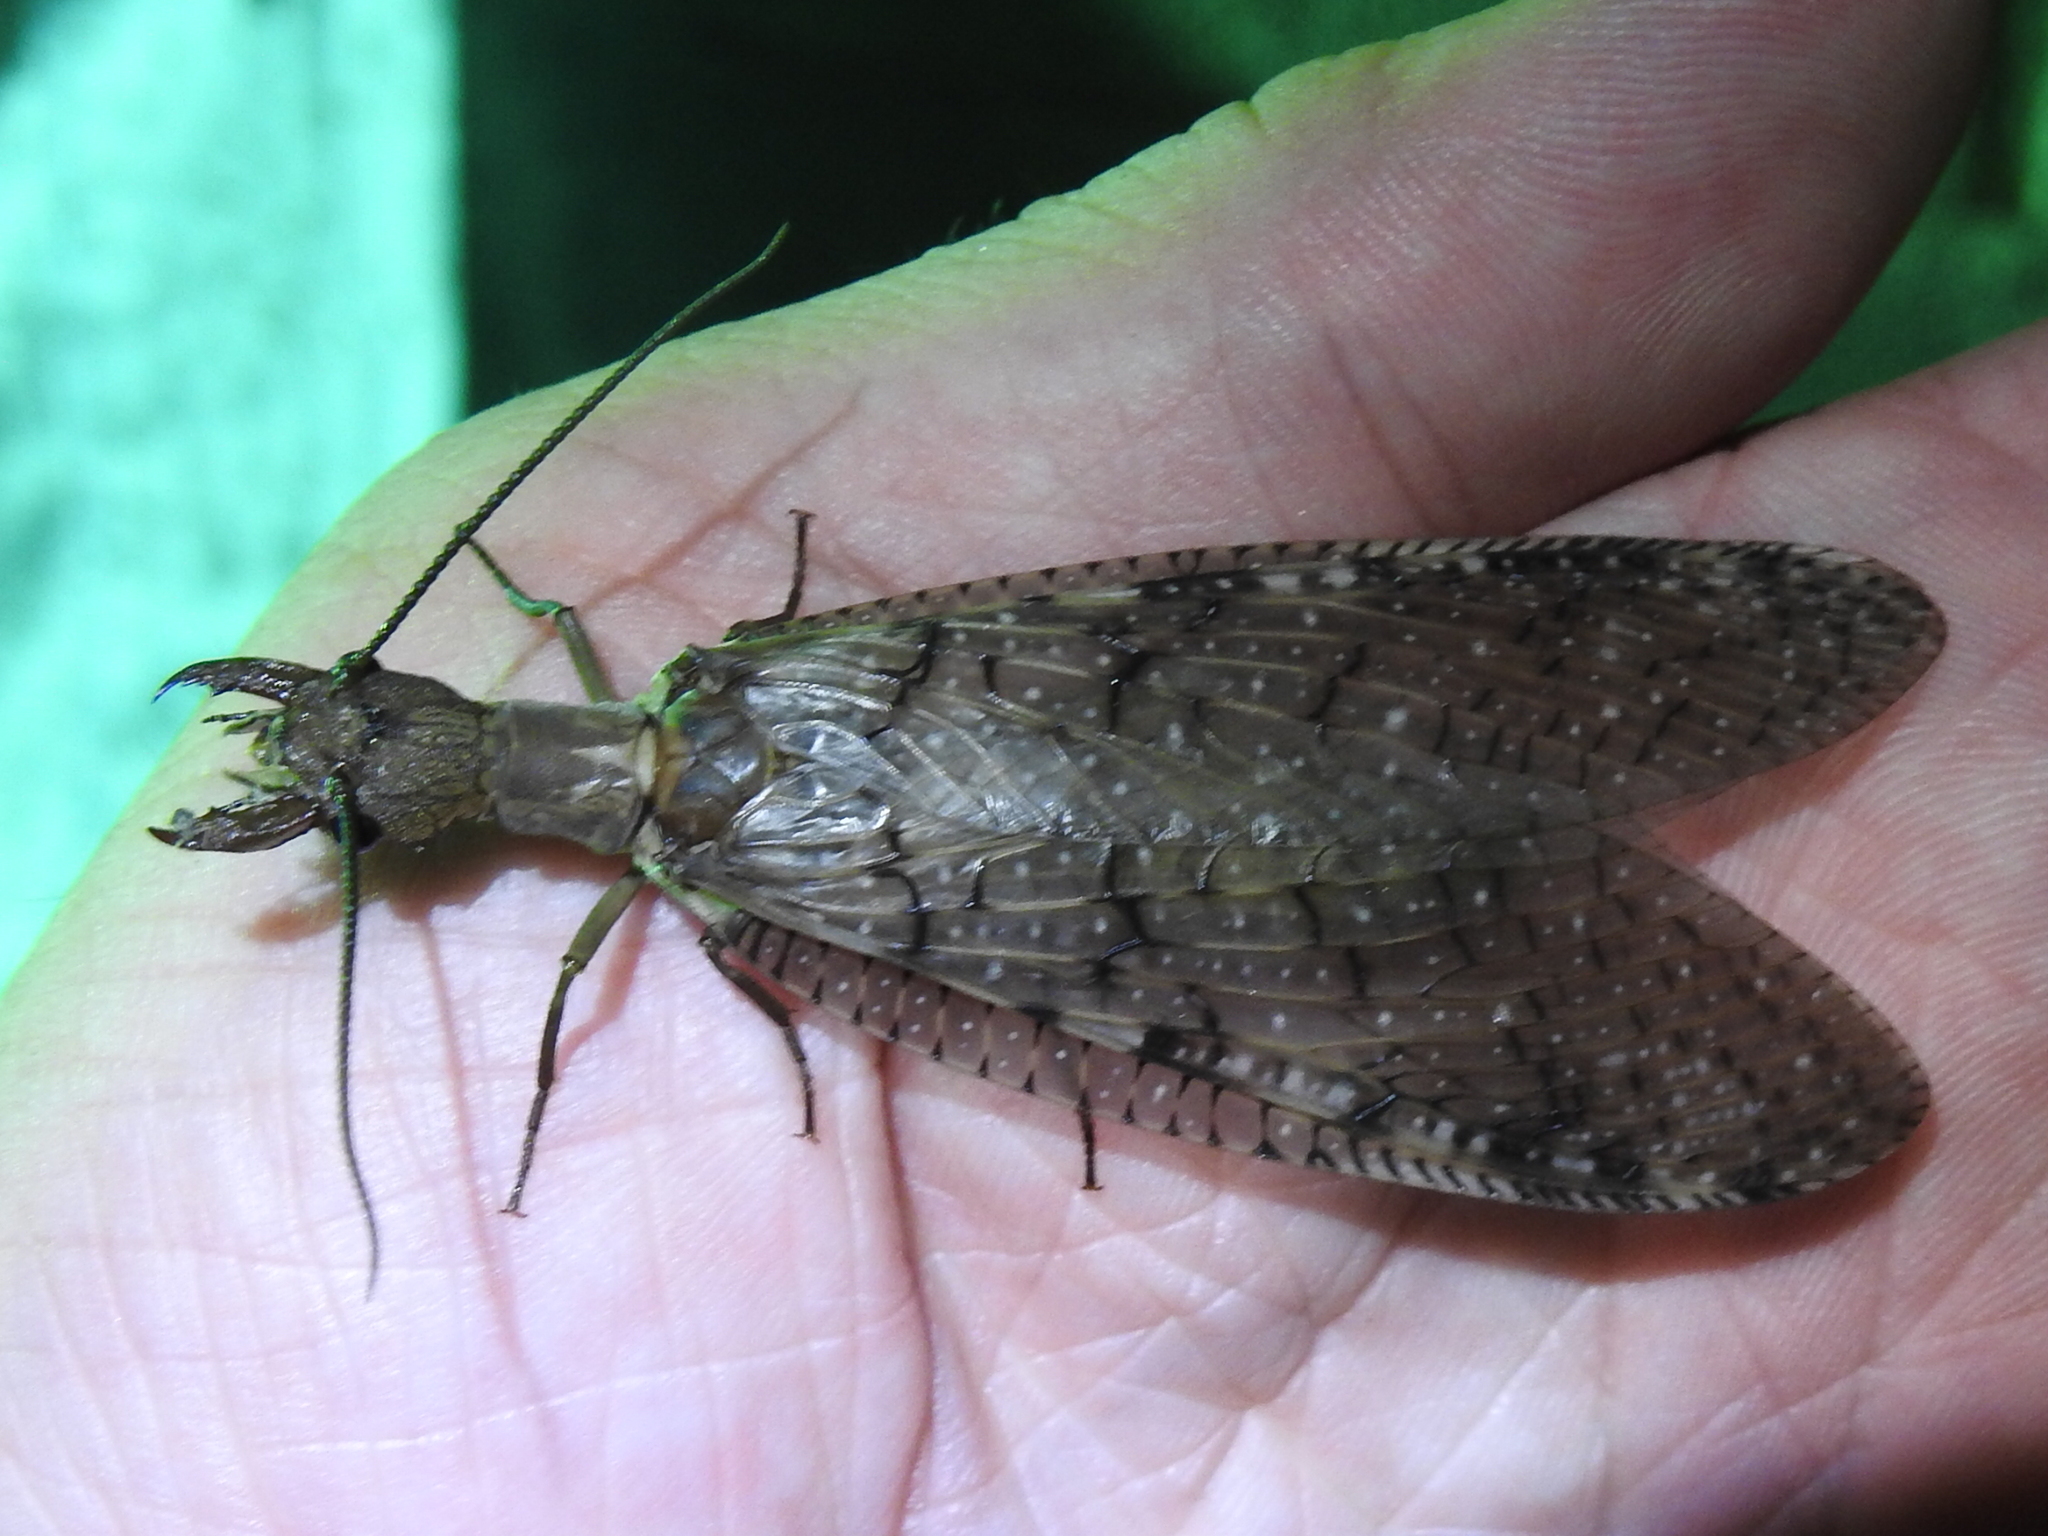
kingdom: Animalia
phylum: Arthropoda
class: Insecta
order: Megaloptera
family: Corydalidae
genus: Corydalus
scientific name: Corydalus cornutus
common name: Dobsonfly
